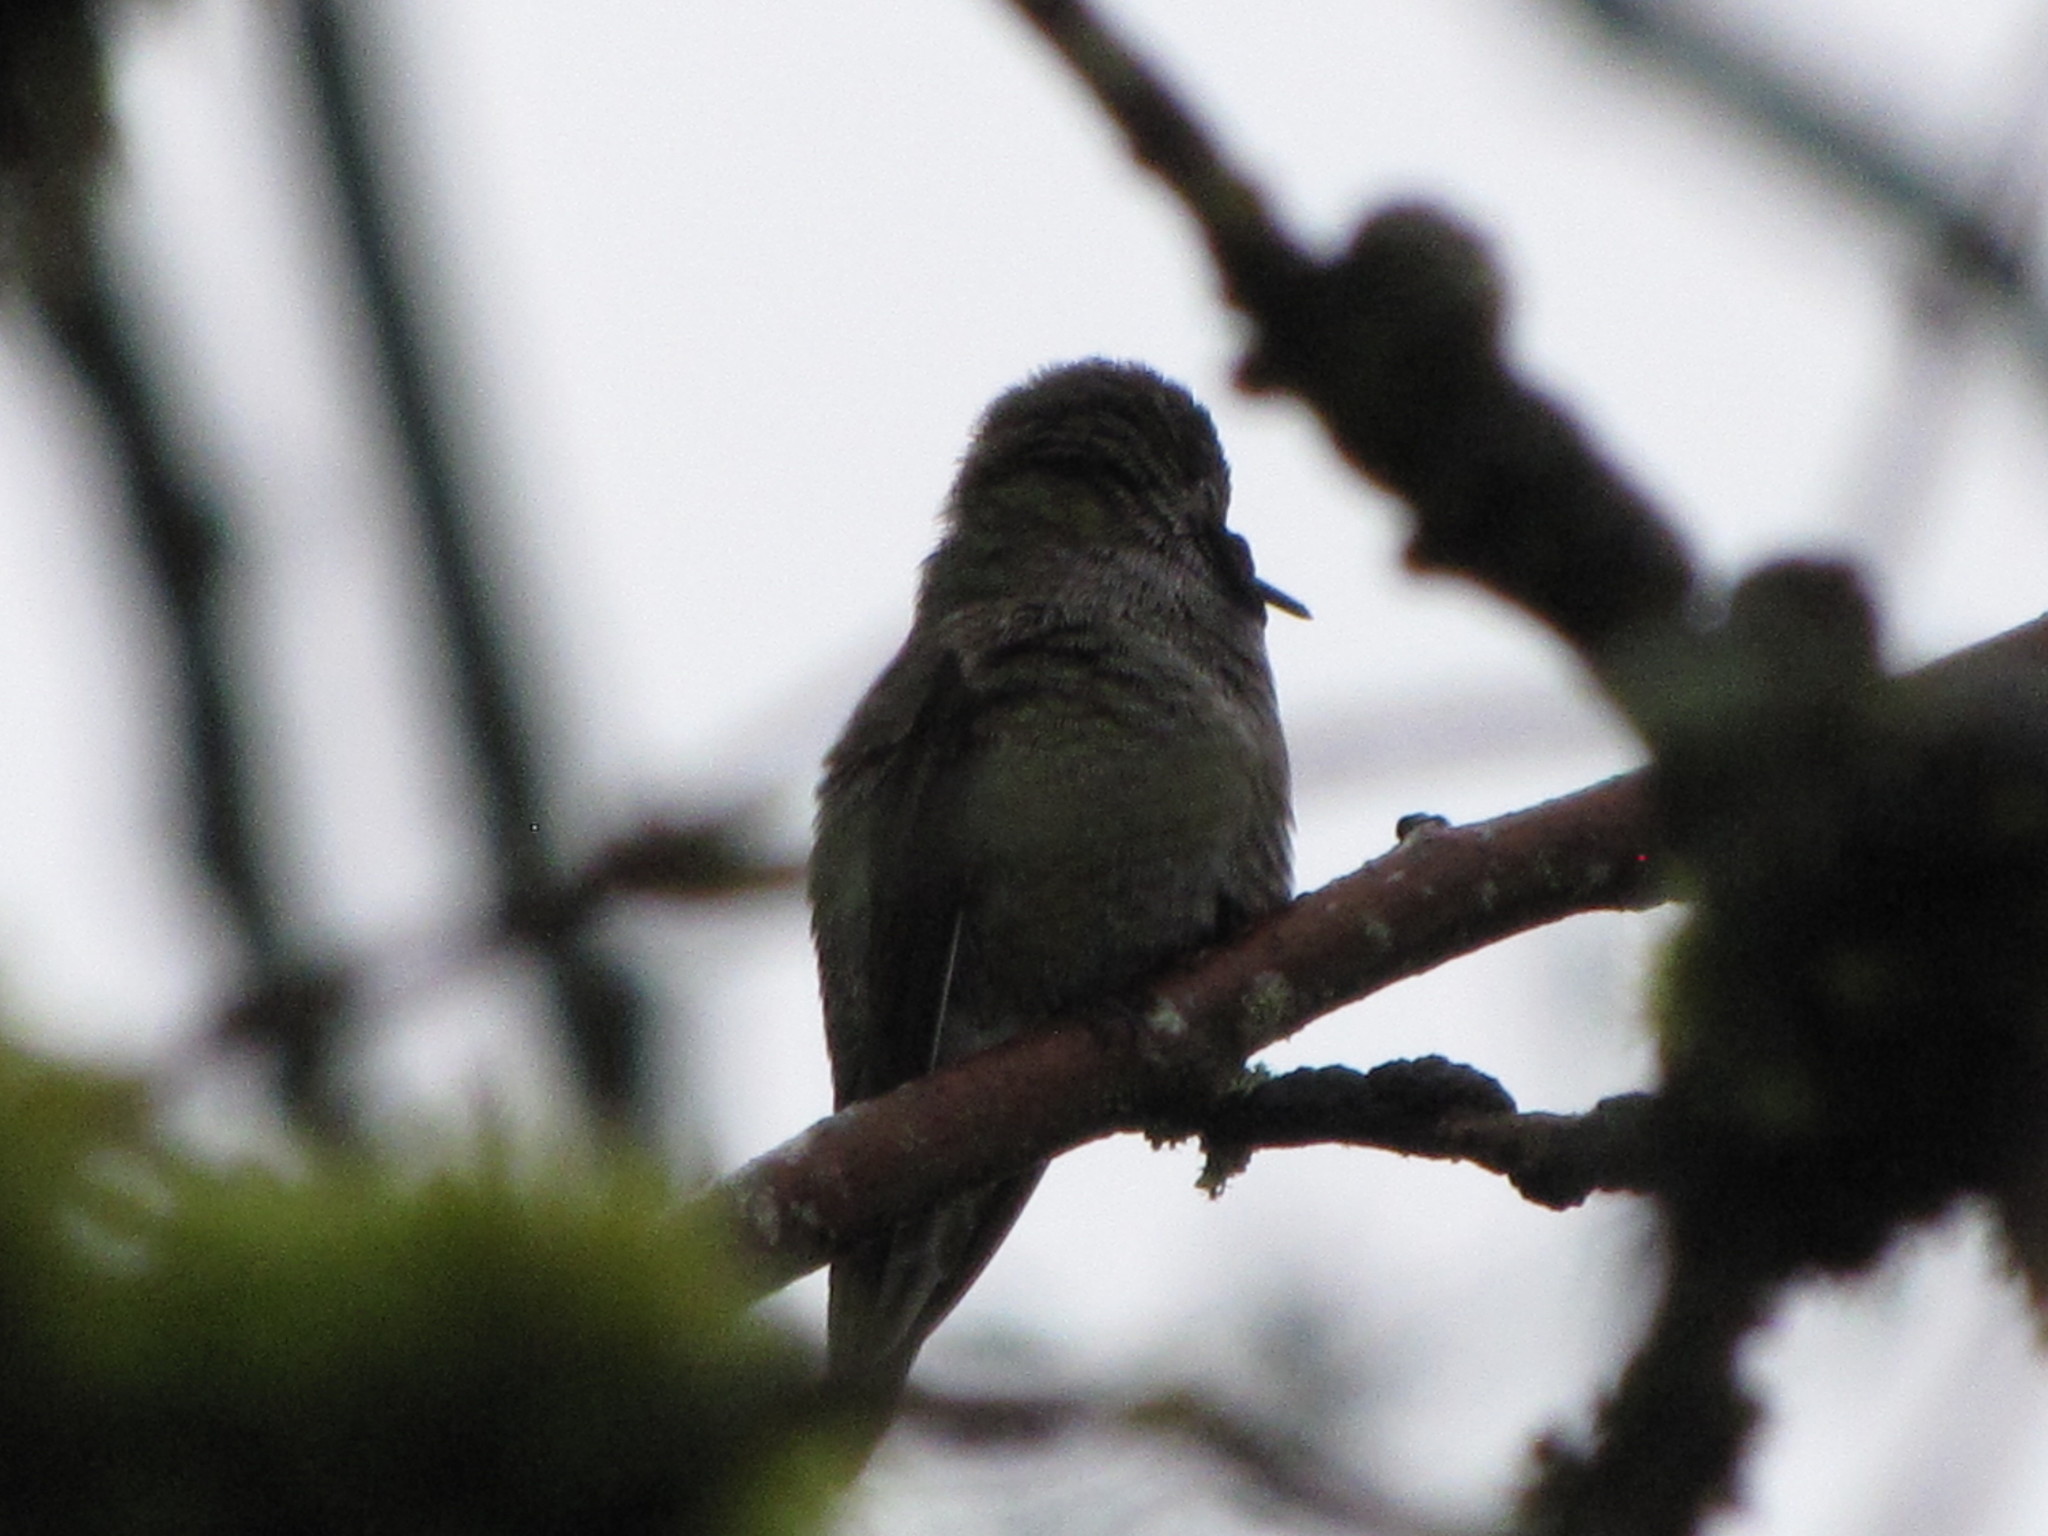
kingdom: Animalia
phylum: Chordata
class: Aves
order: Apodiformes
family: Trochilidae
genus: Calypte
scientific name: Calypte anna
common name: Anna's hummingbird
